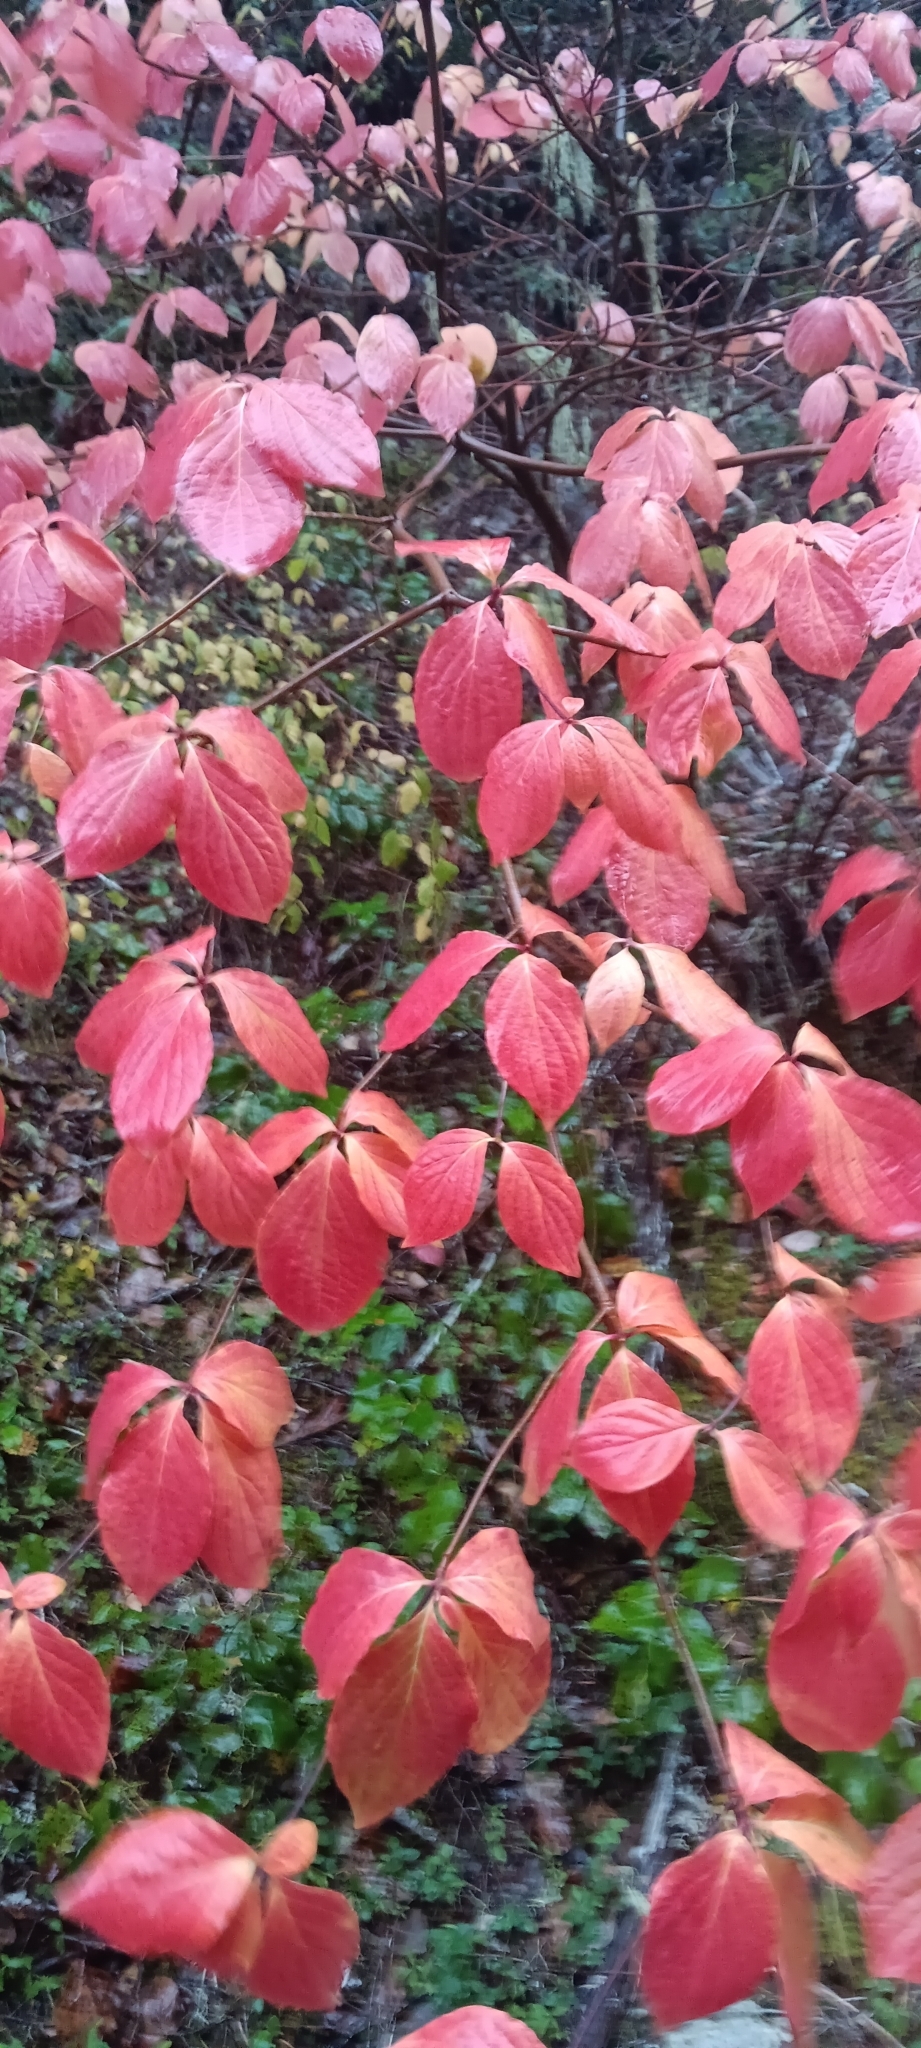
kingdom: Plantae
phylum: Tracheophyta
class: Magnoliopsida
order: Cornales
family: Cornaceae
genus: Cornus
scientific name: Cornus nuttallii
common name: Pacific dogwood
